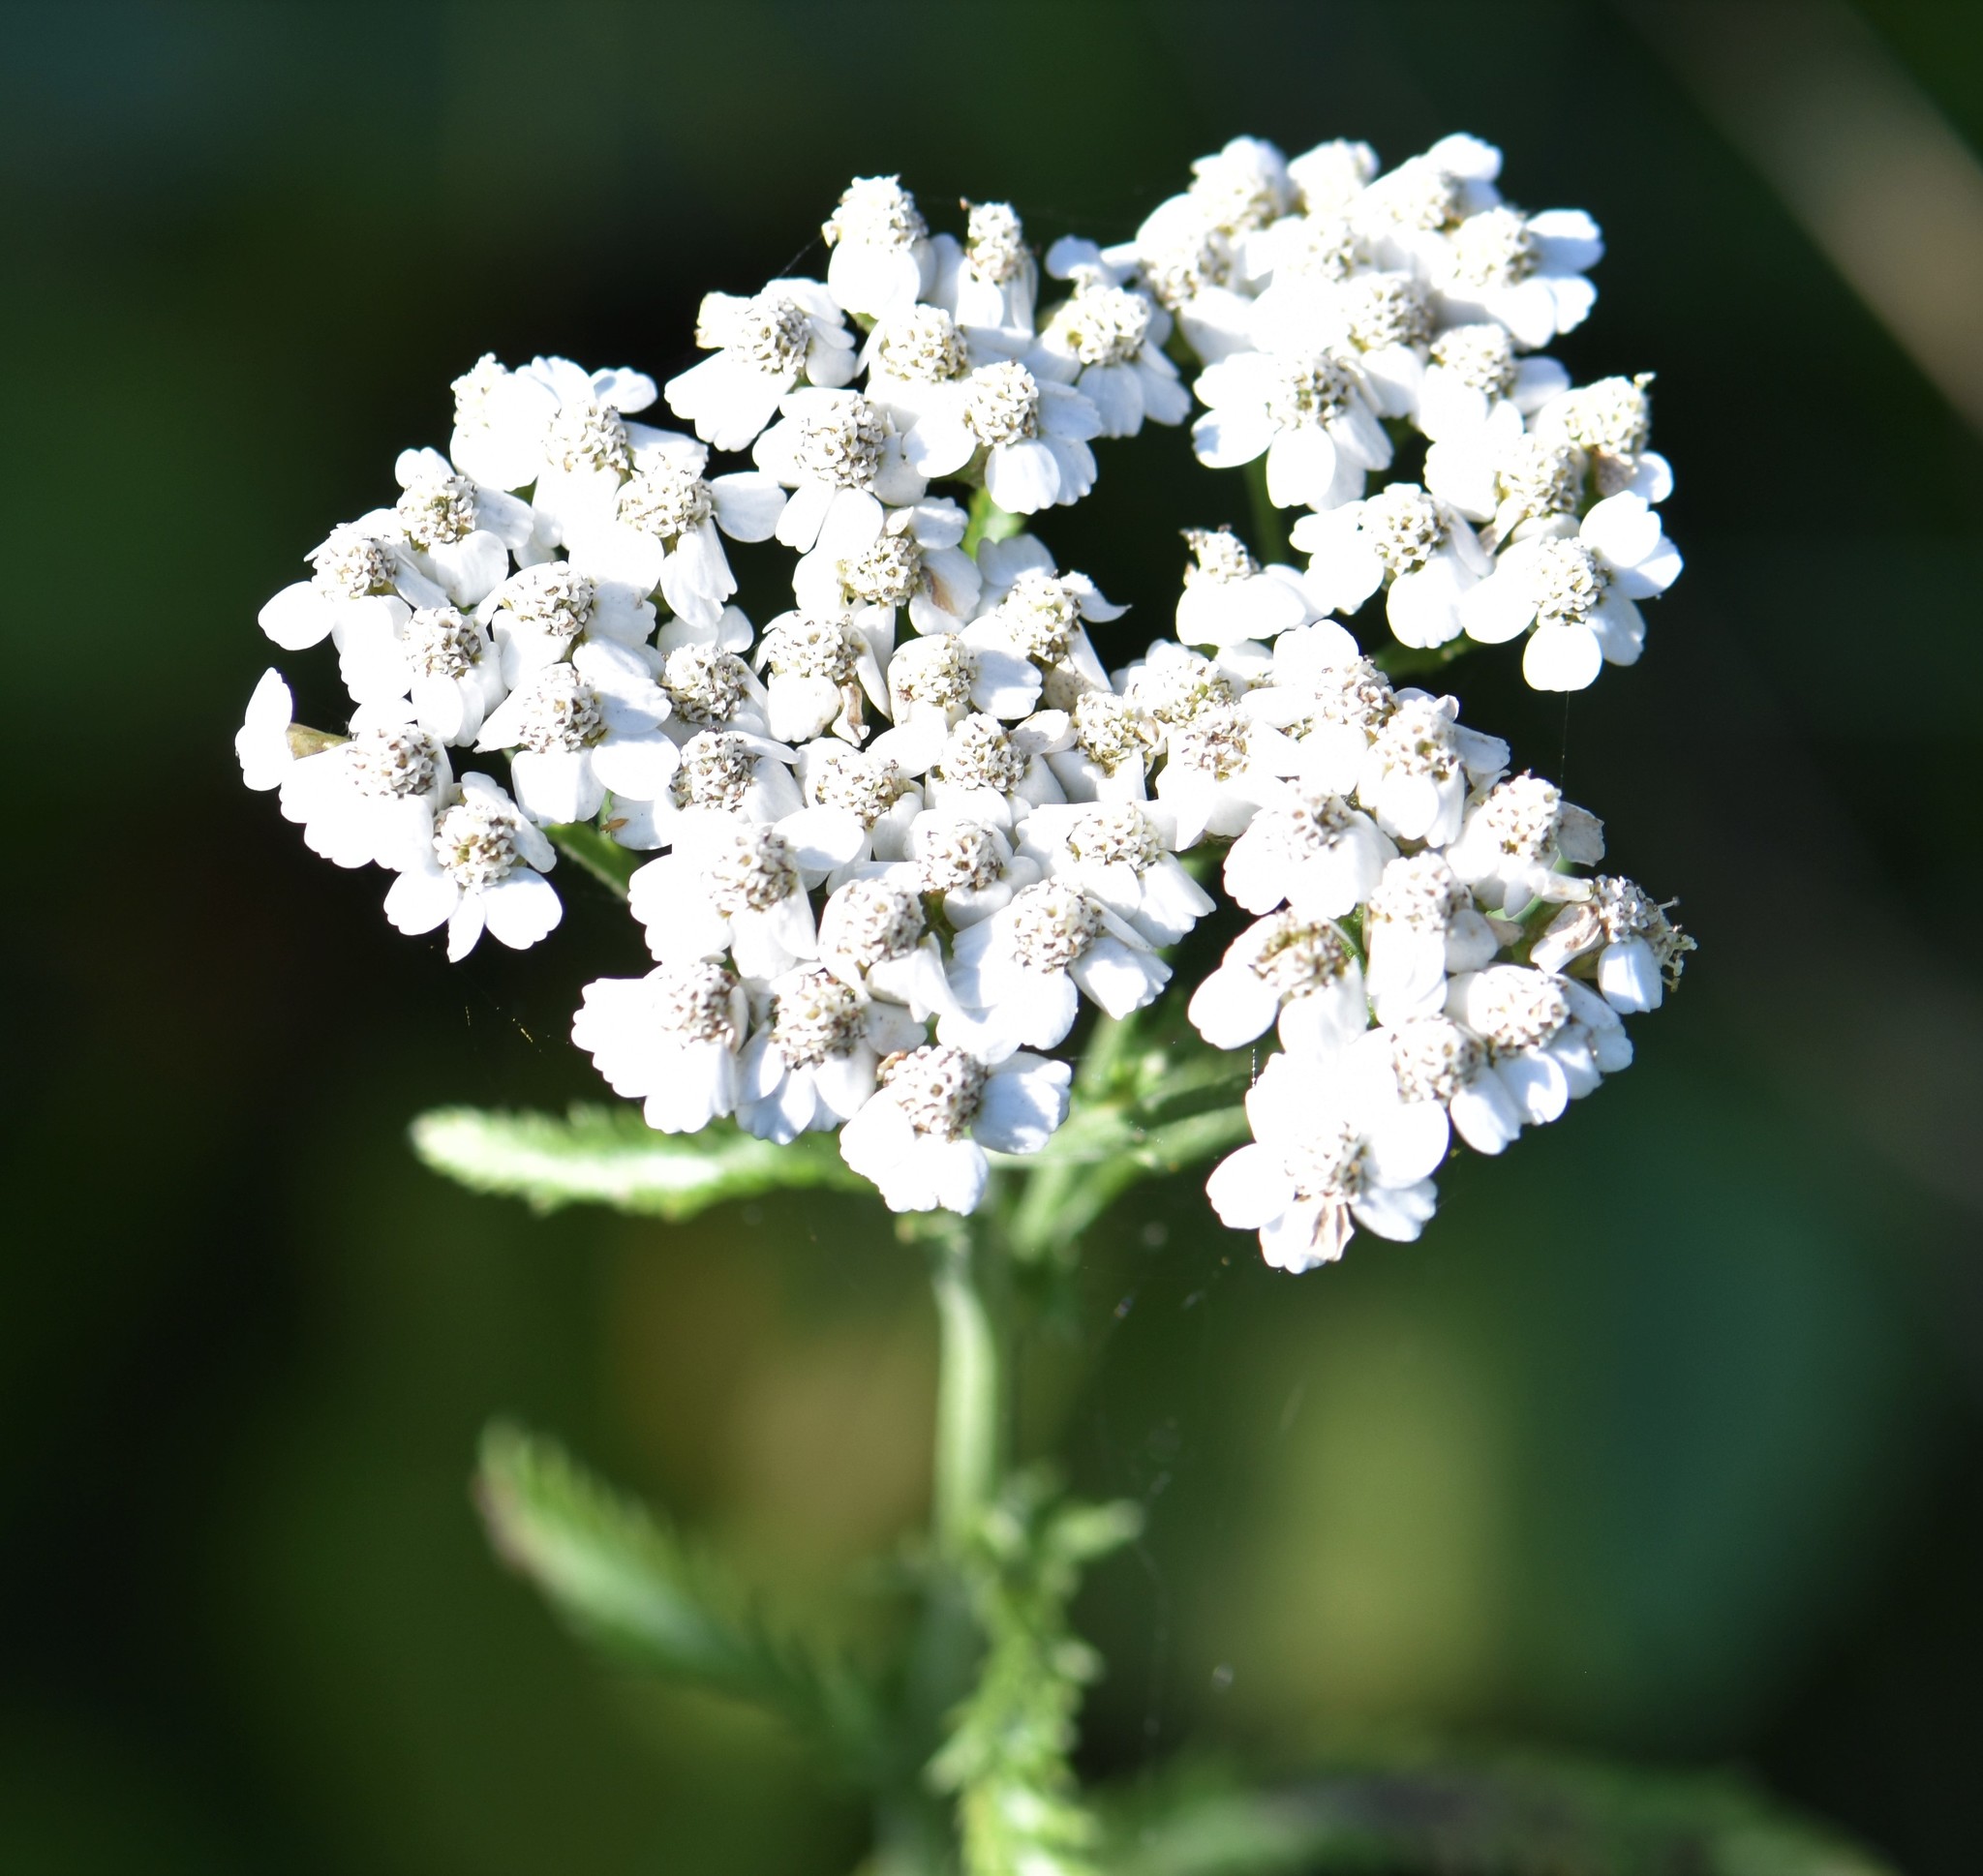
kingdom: Plantae
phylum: Tracheophyta
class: Magnoliopsida
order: Asterales
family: Asteraceae
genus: Achillea
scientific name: Achillea millefolium
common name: Yarrow
